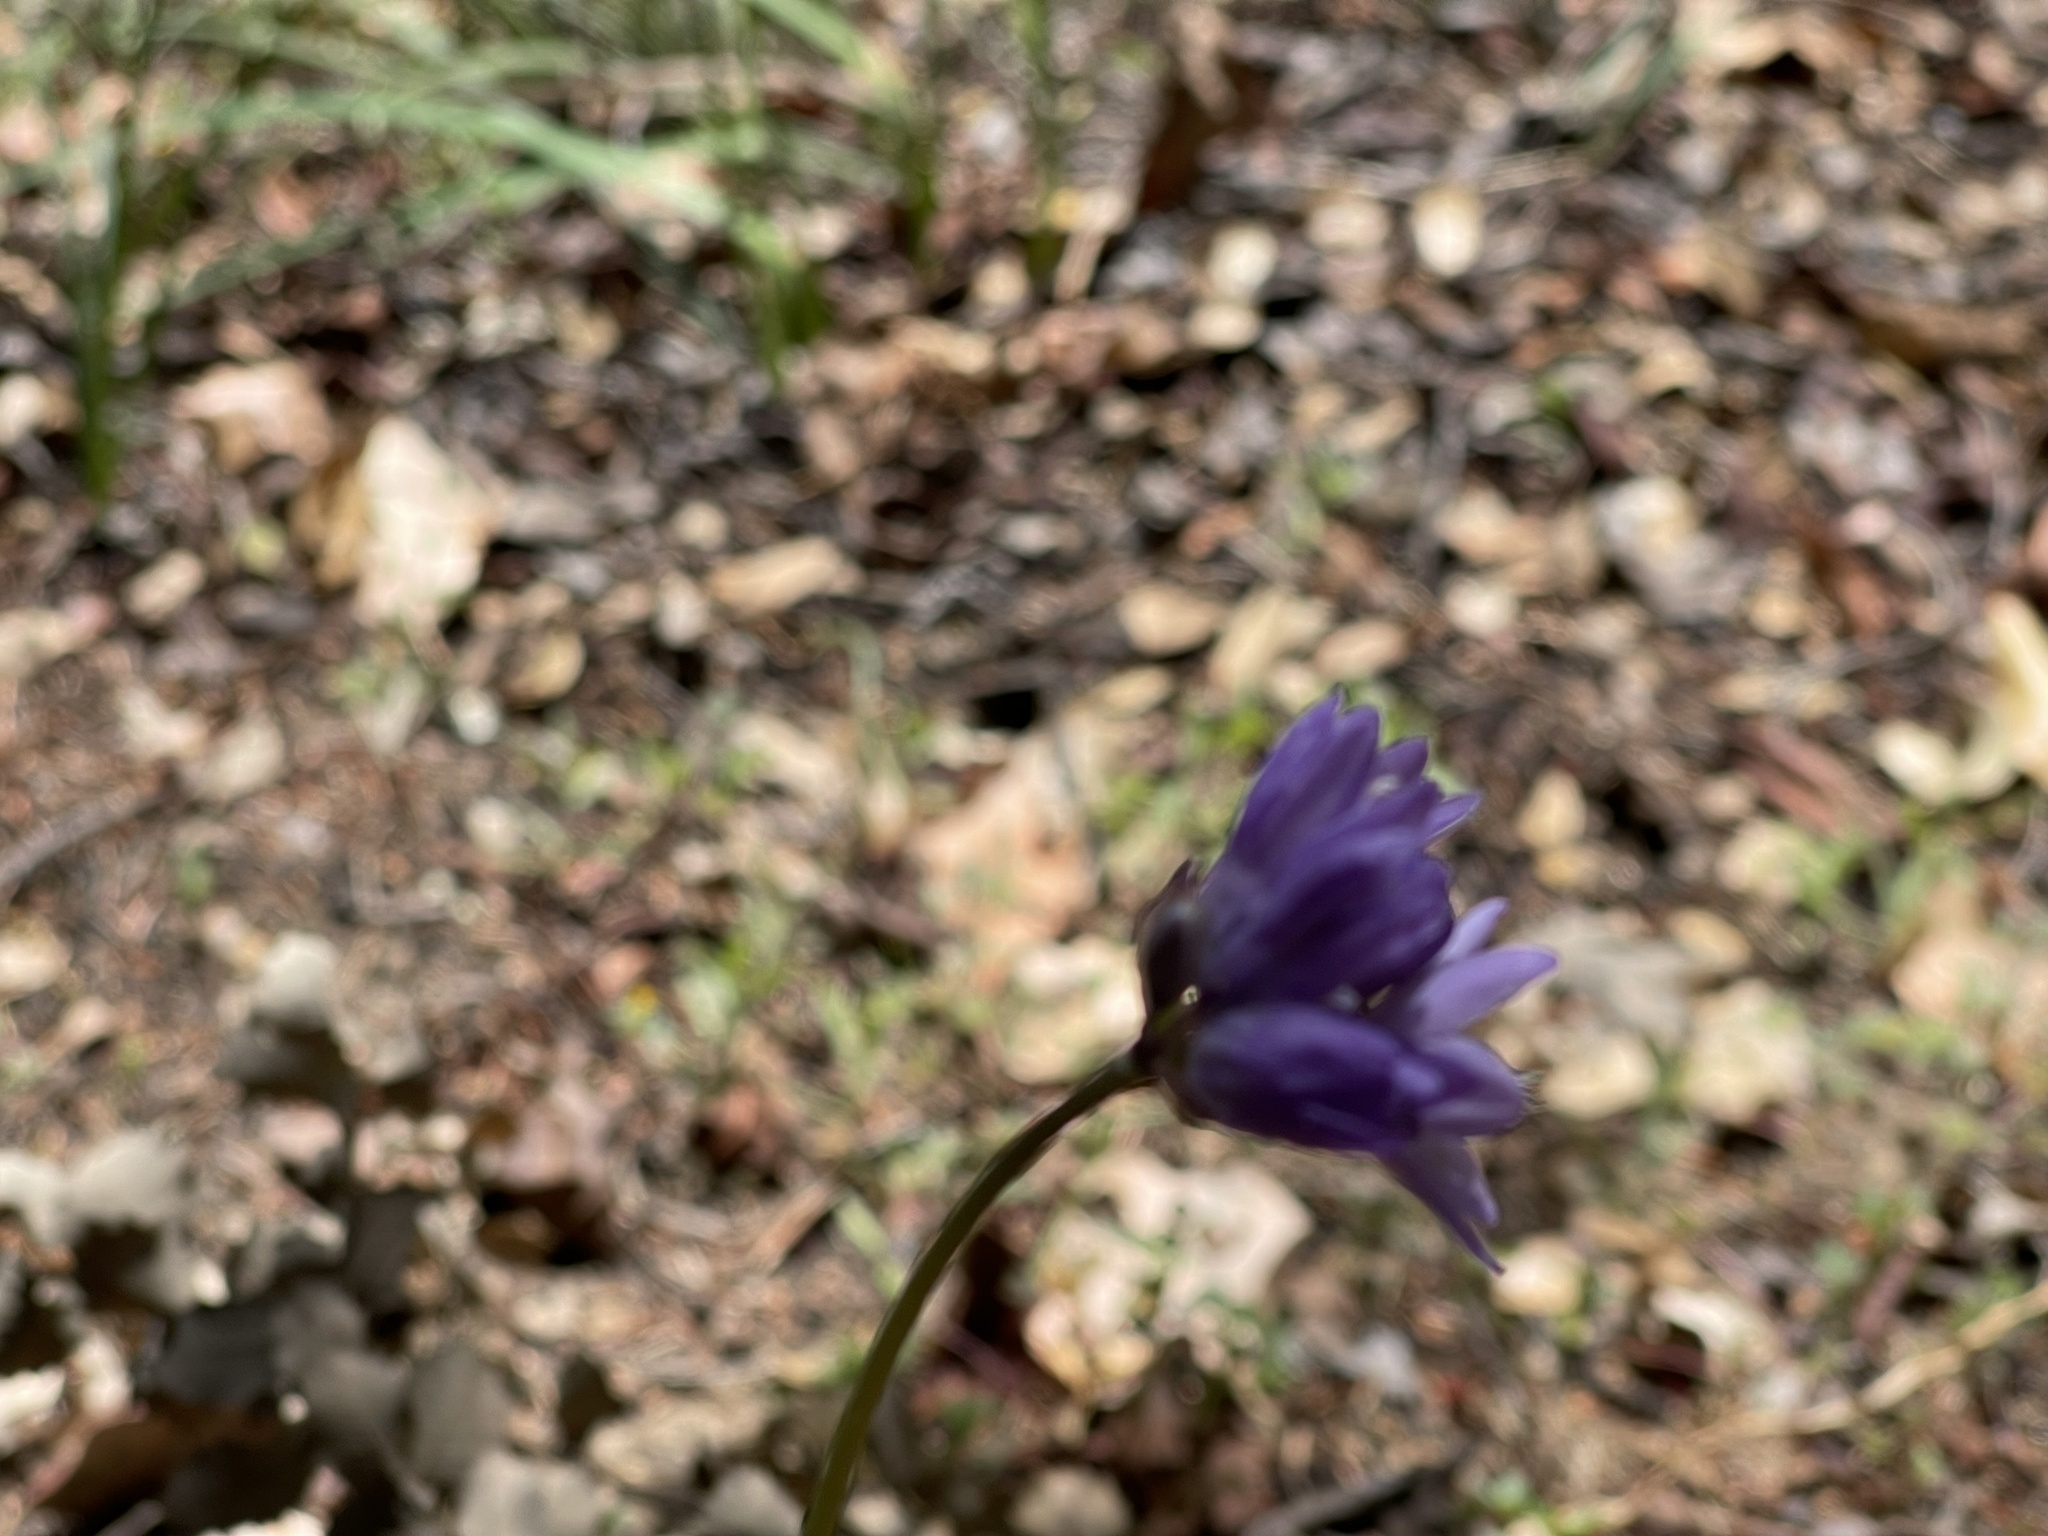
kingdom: Plantae
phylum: Tracheophyta
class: Liliopsida
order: Asparagales
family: Asparagaceae
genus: Dipterostemon
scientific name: Dipterostemon capitatus
